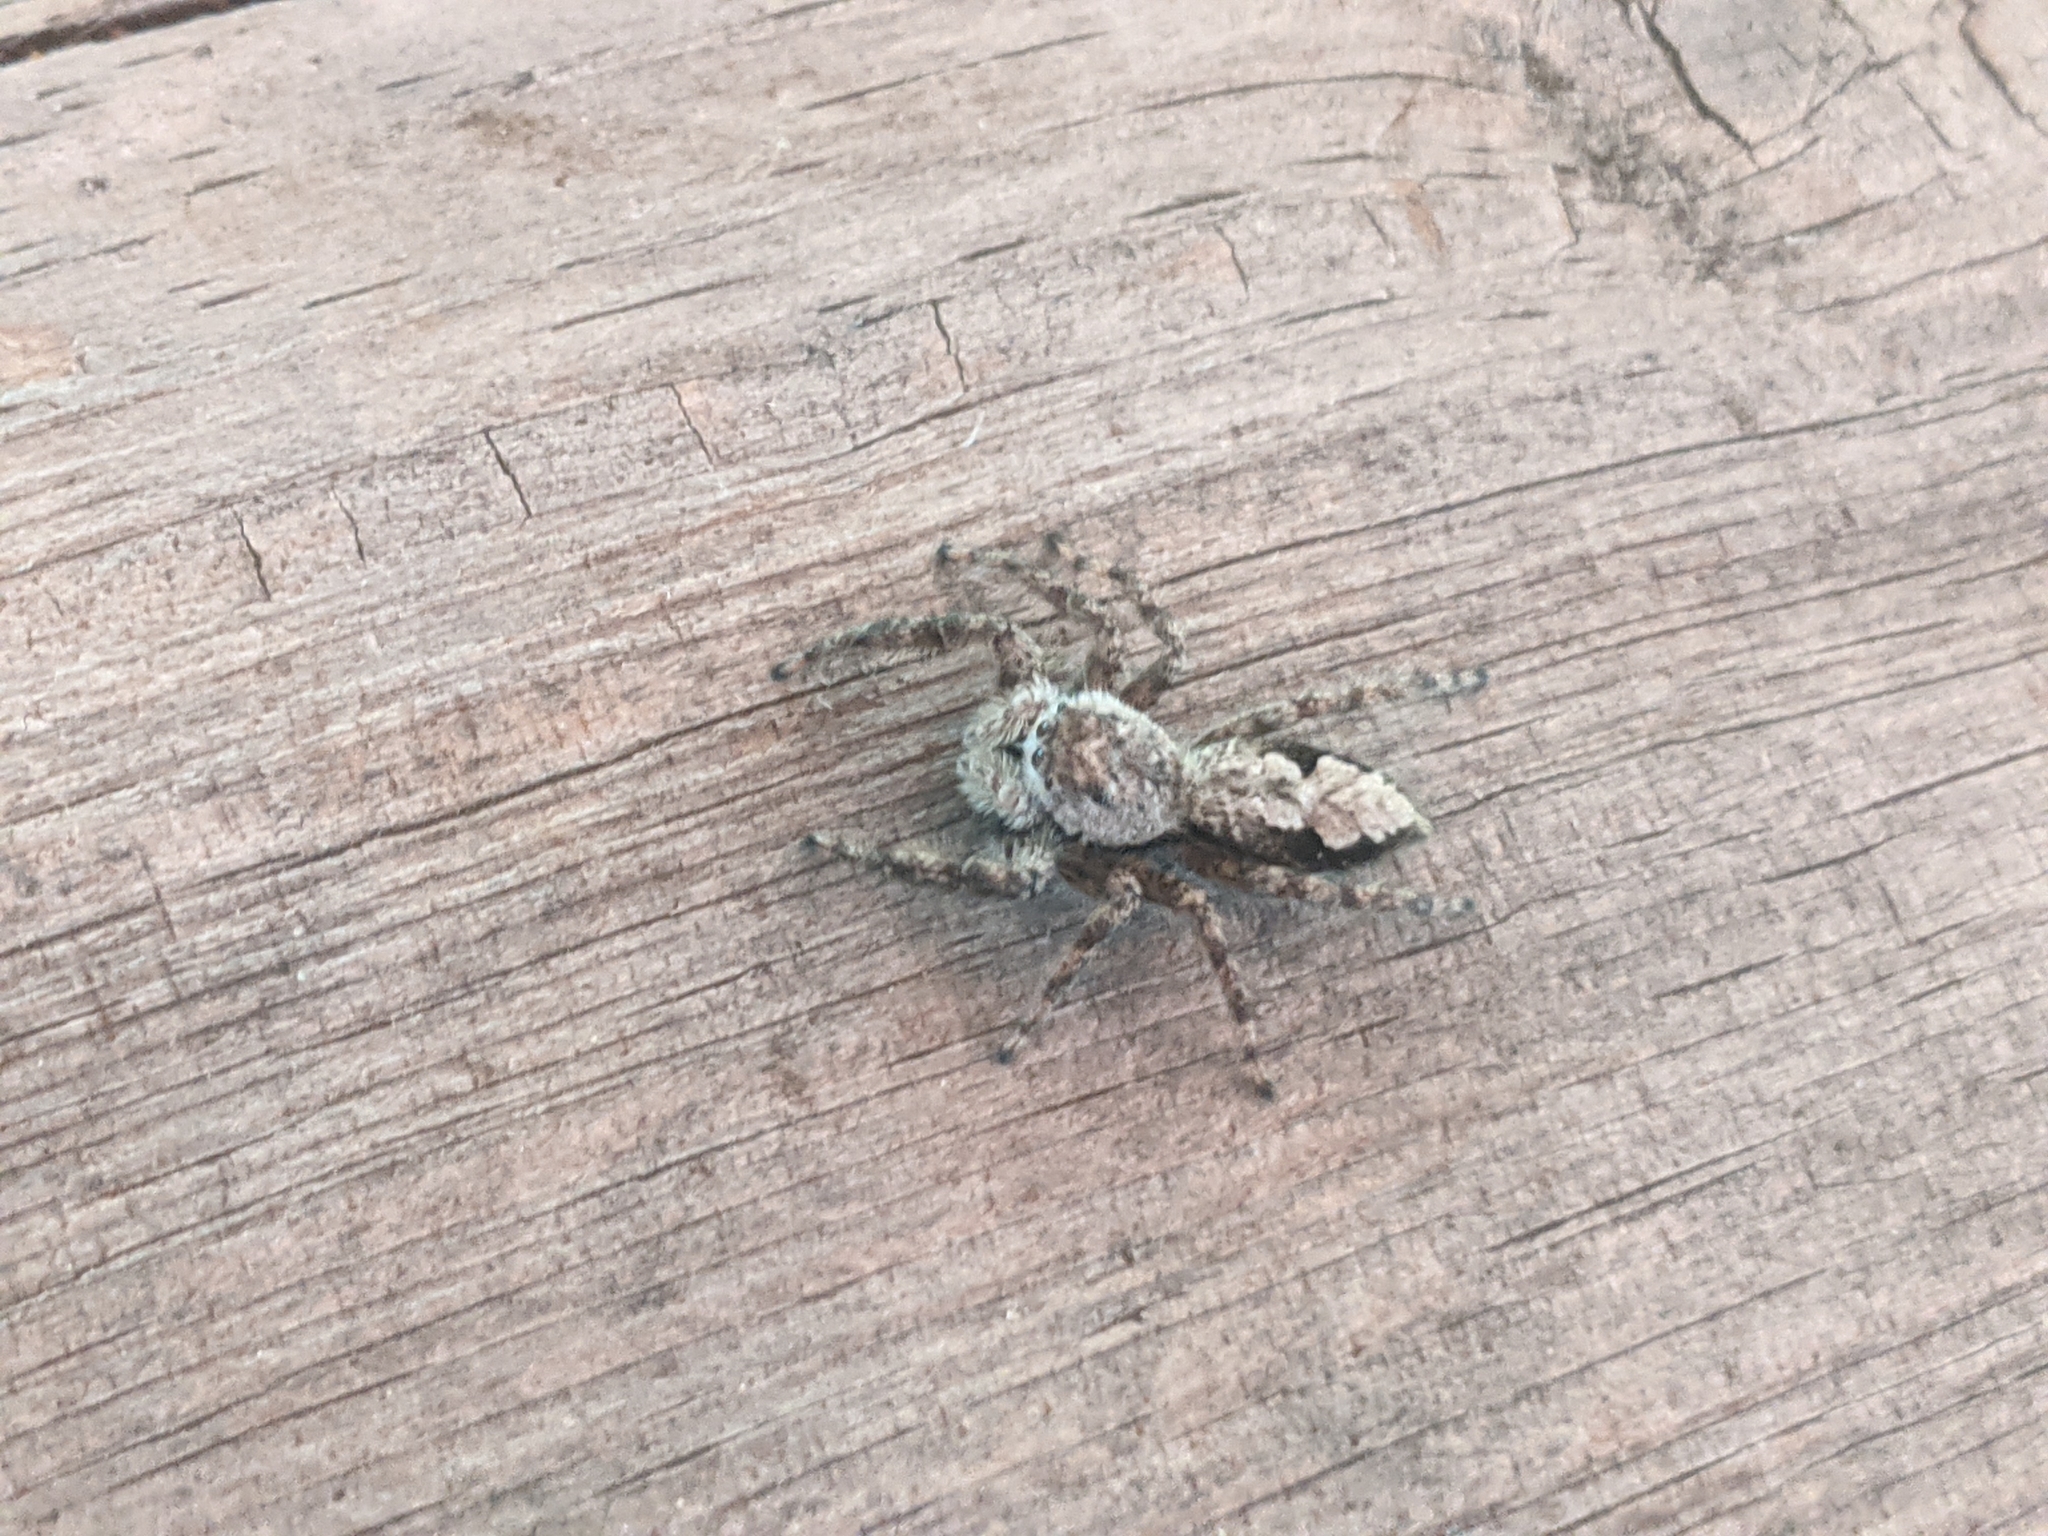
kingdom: Animalia
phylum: Arthropoda
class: Arachnida
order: Araneae
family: Salticidae
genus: Platycryptus
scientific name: Platycryptus undatus
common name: Tan jumping spider
